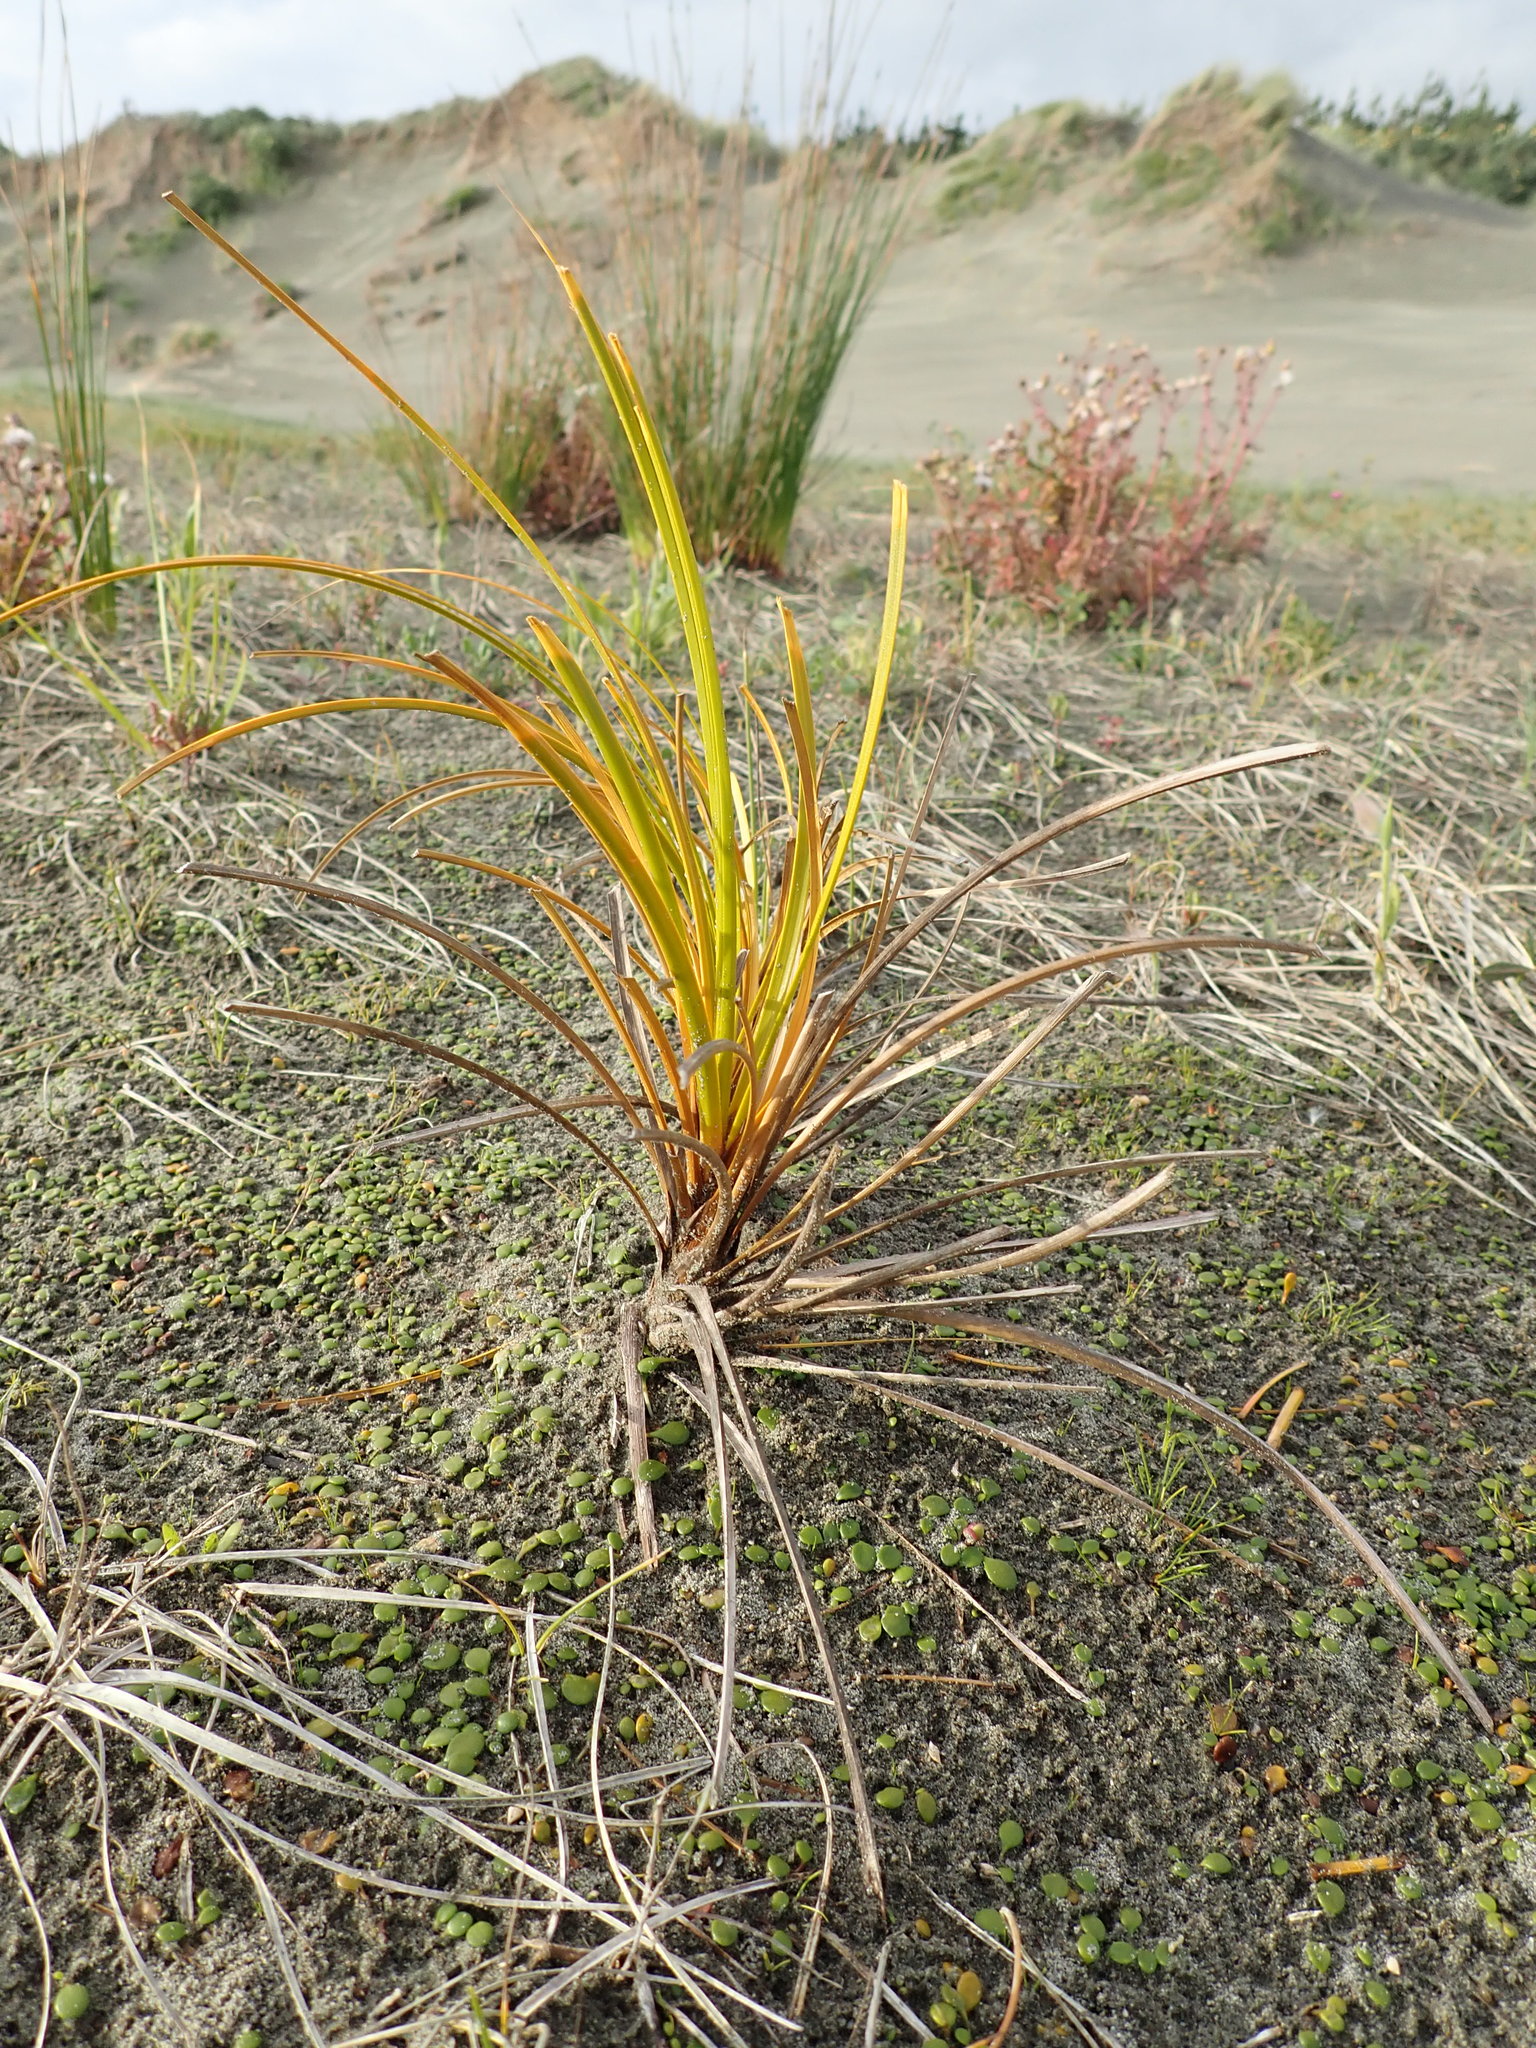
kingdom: Plantae
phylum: Tracheophyta
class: Liliopsida
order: Poales
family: Cyperaceae
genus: Ficinia
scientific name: Ficinia spiralis
